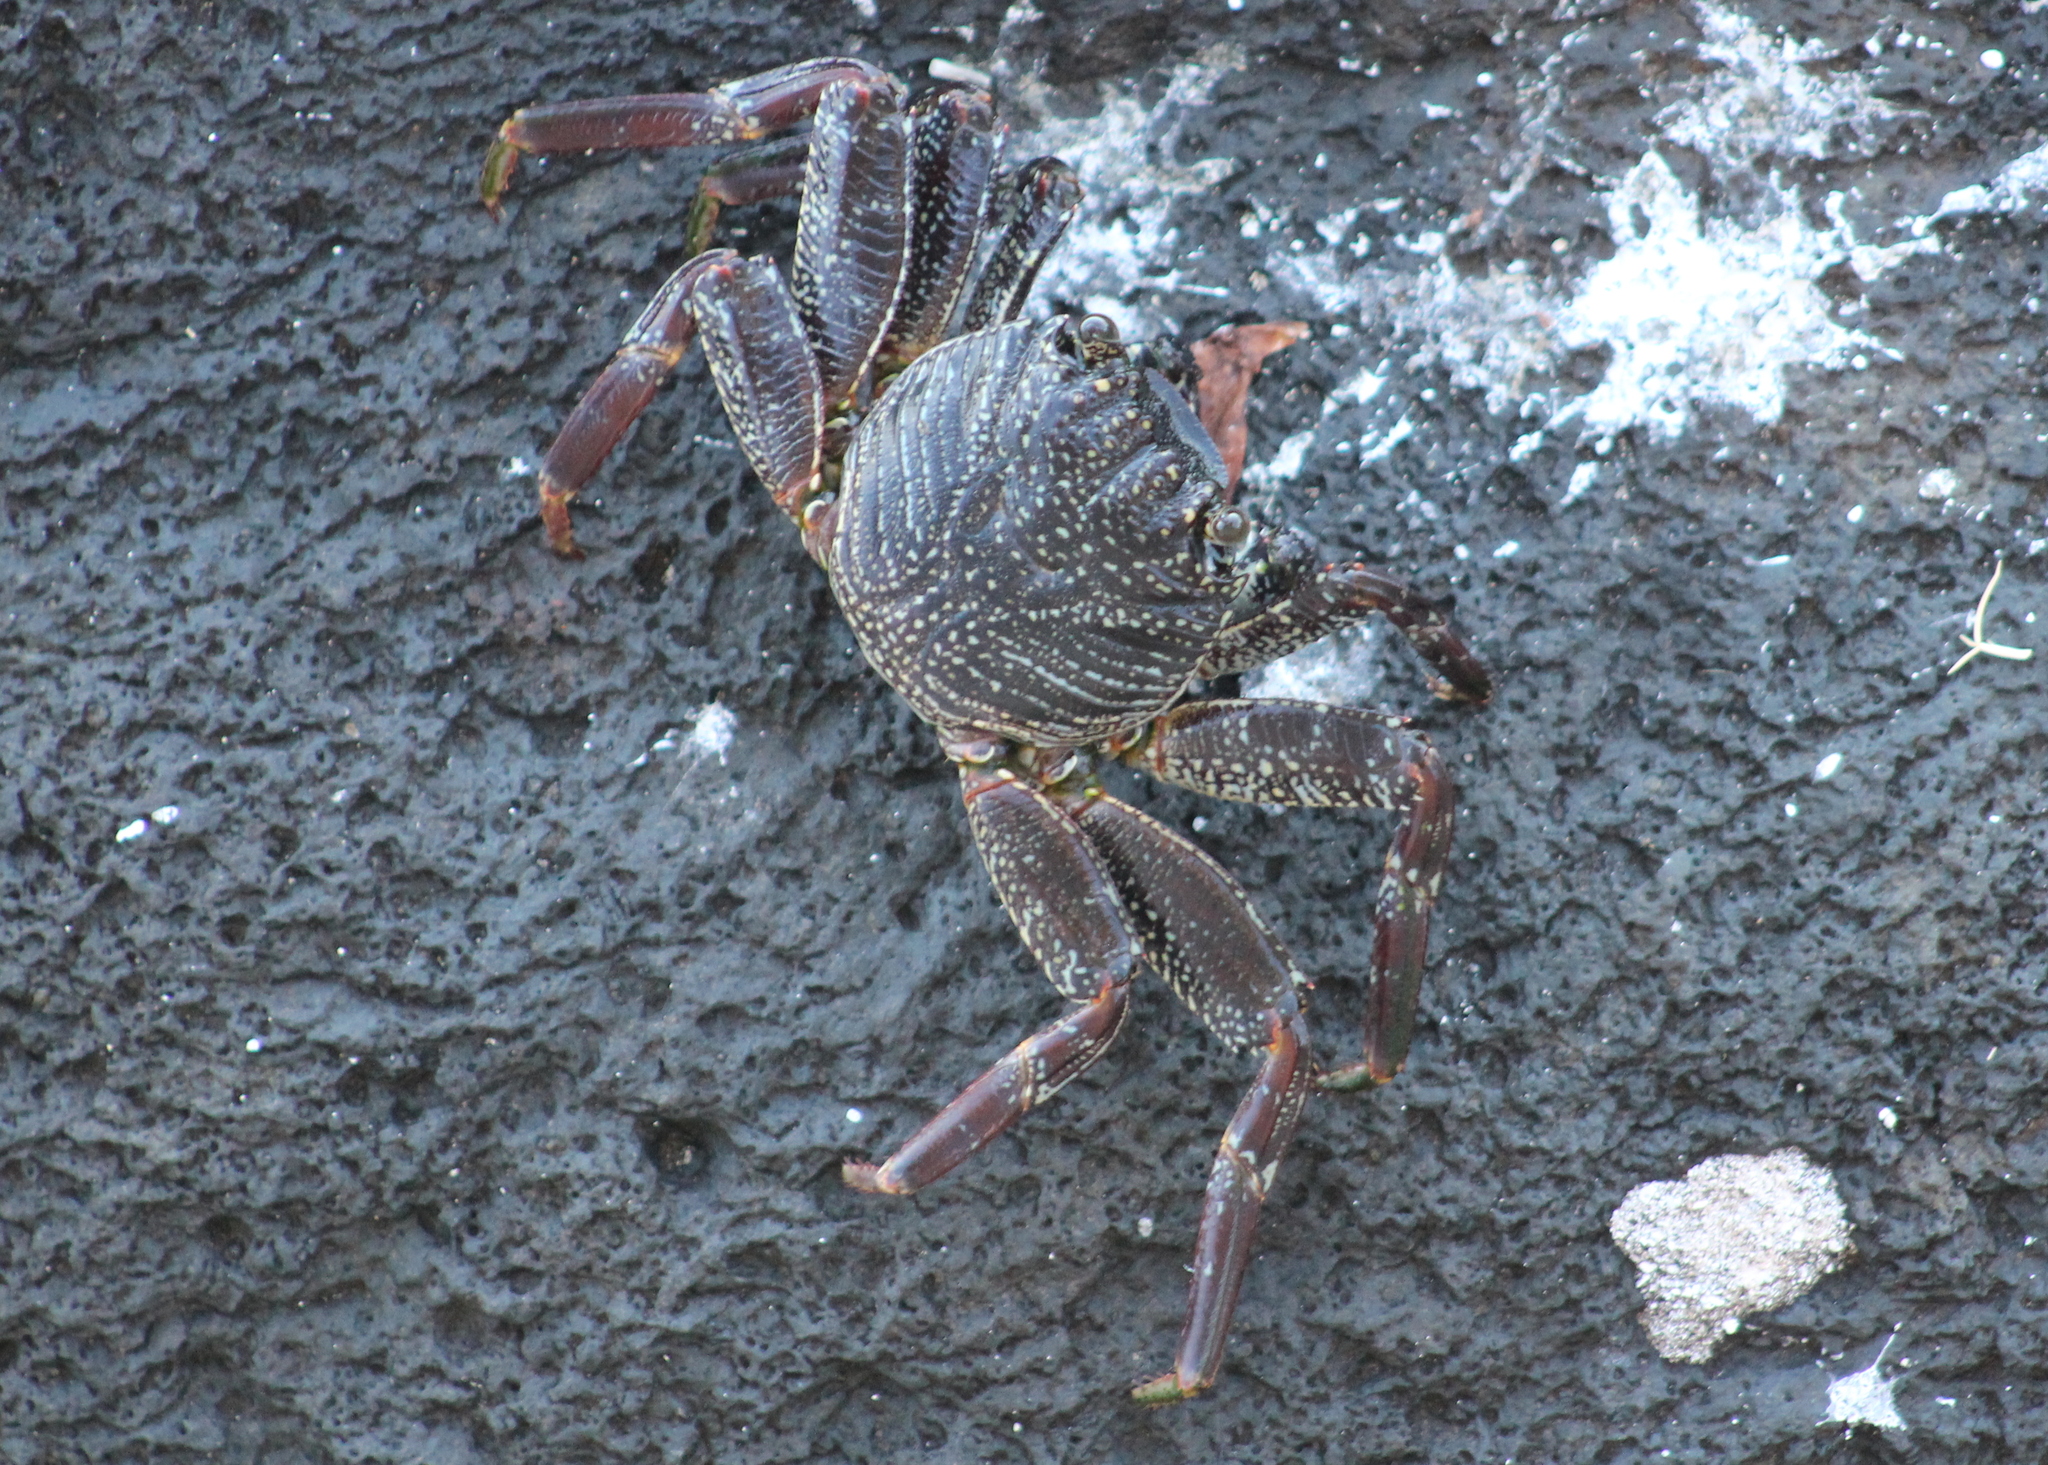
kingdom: Animalia
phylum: Arthropoda
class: Malacostraca
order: Decapoda
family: Grapsidae
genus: Grapsus
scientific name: Grapsus tenuicrustatus
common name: Natal lightfoot crab
